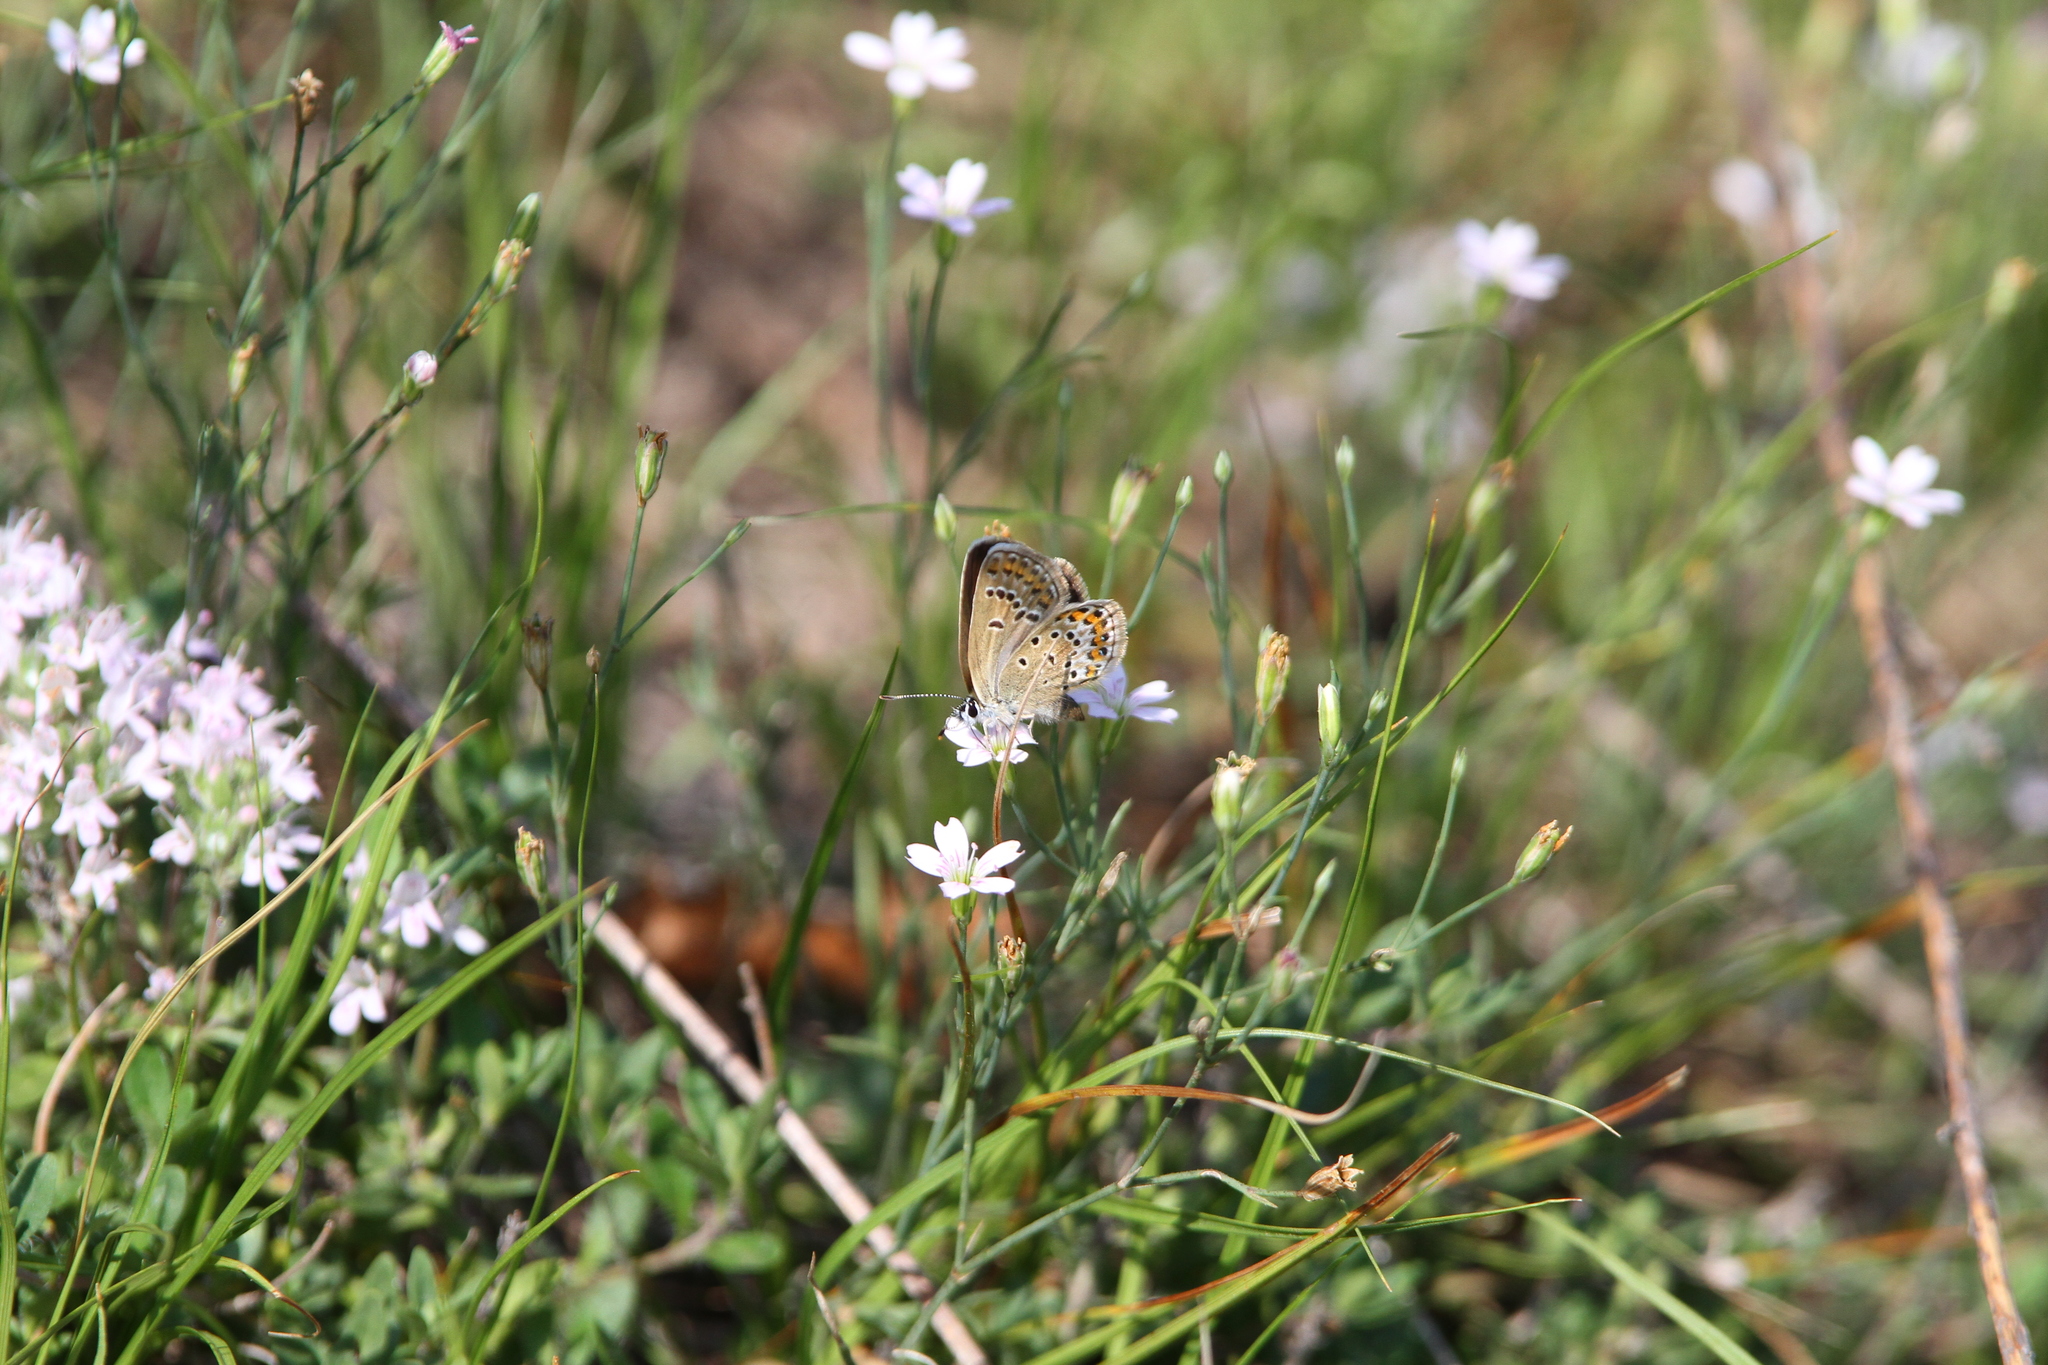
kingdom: Animalia
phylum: Arthropoda
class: Insecta
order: Lepidoptera
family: Lycaenidae
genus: Plebejus
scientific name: Plebejus argus
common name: Silver-studded blue
